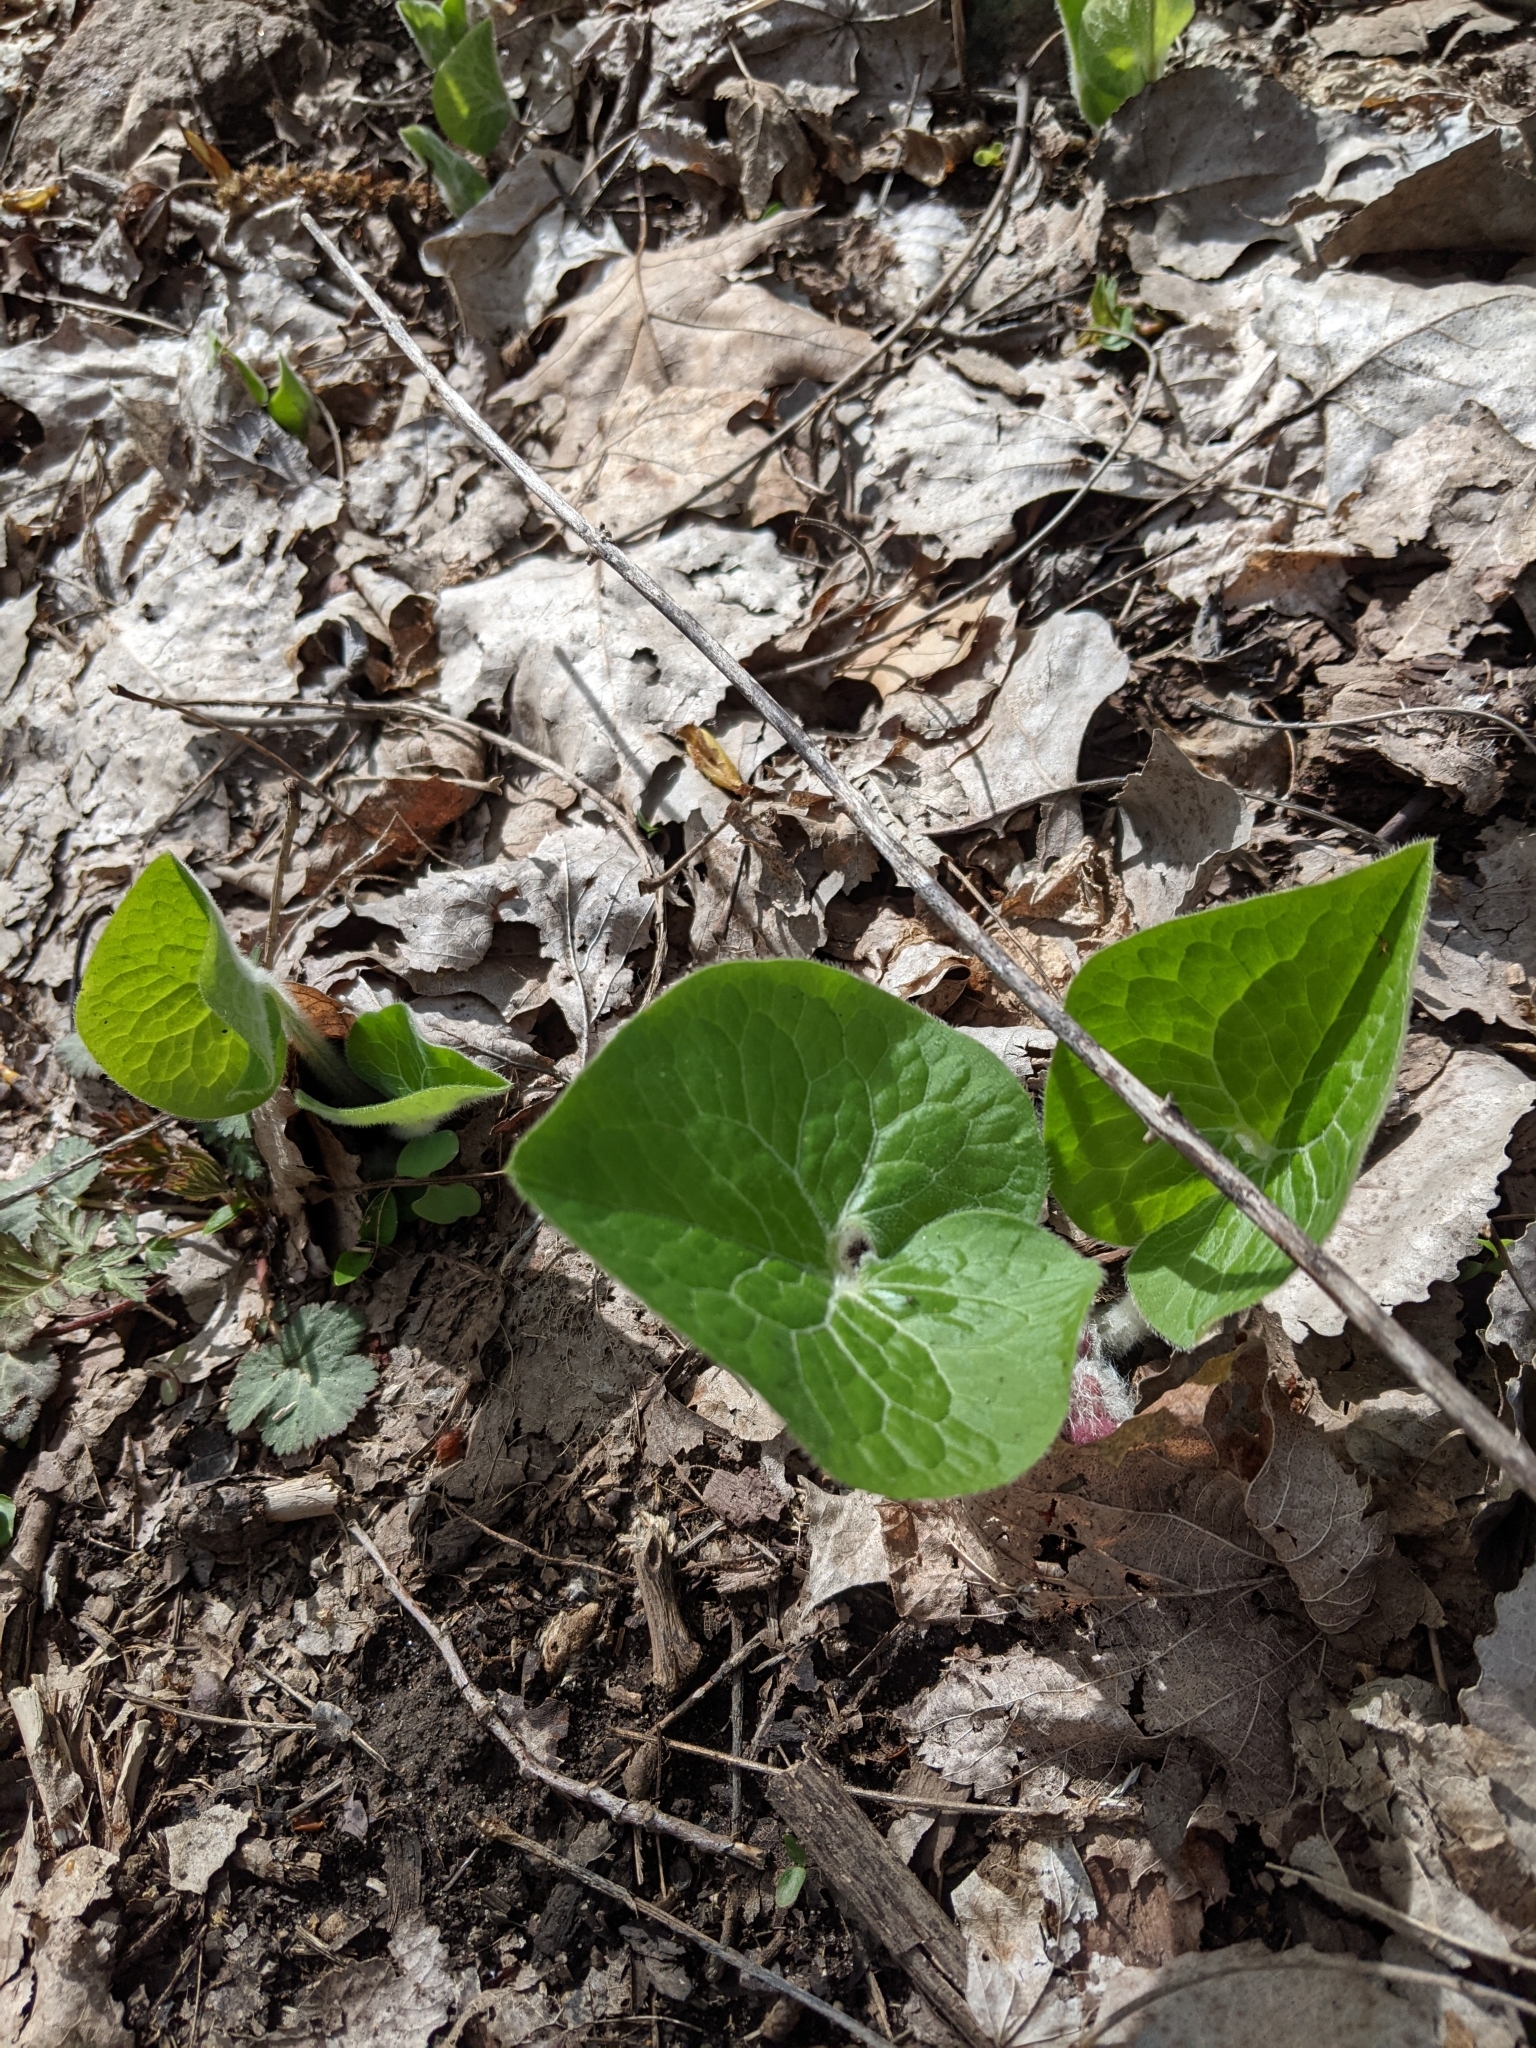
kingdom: Plantae
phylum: Tracheophyta
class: Magnoliopsida
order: Piperales
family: Aristolochiaceae
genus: Asarum
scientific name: Asarum canadense
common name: Wild ginger
